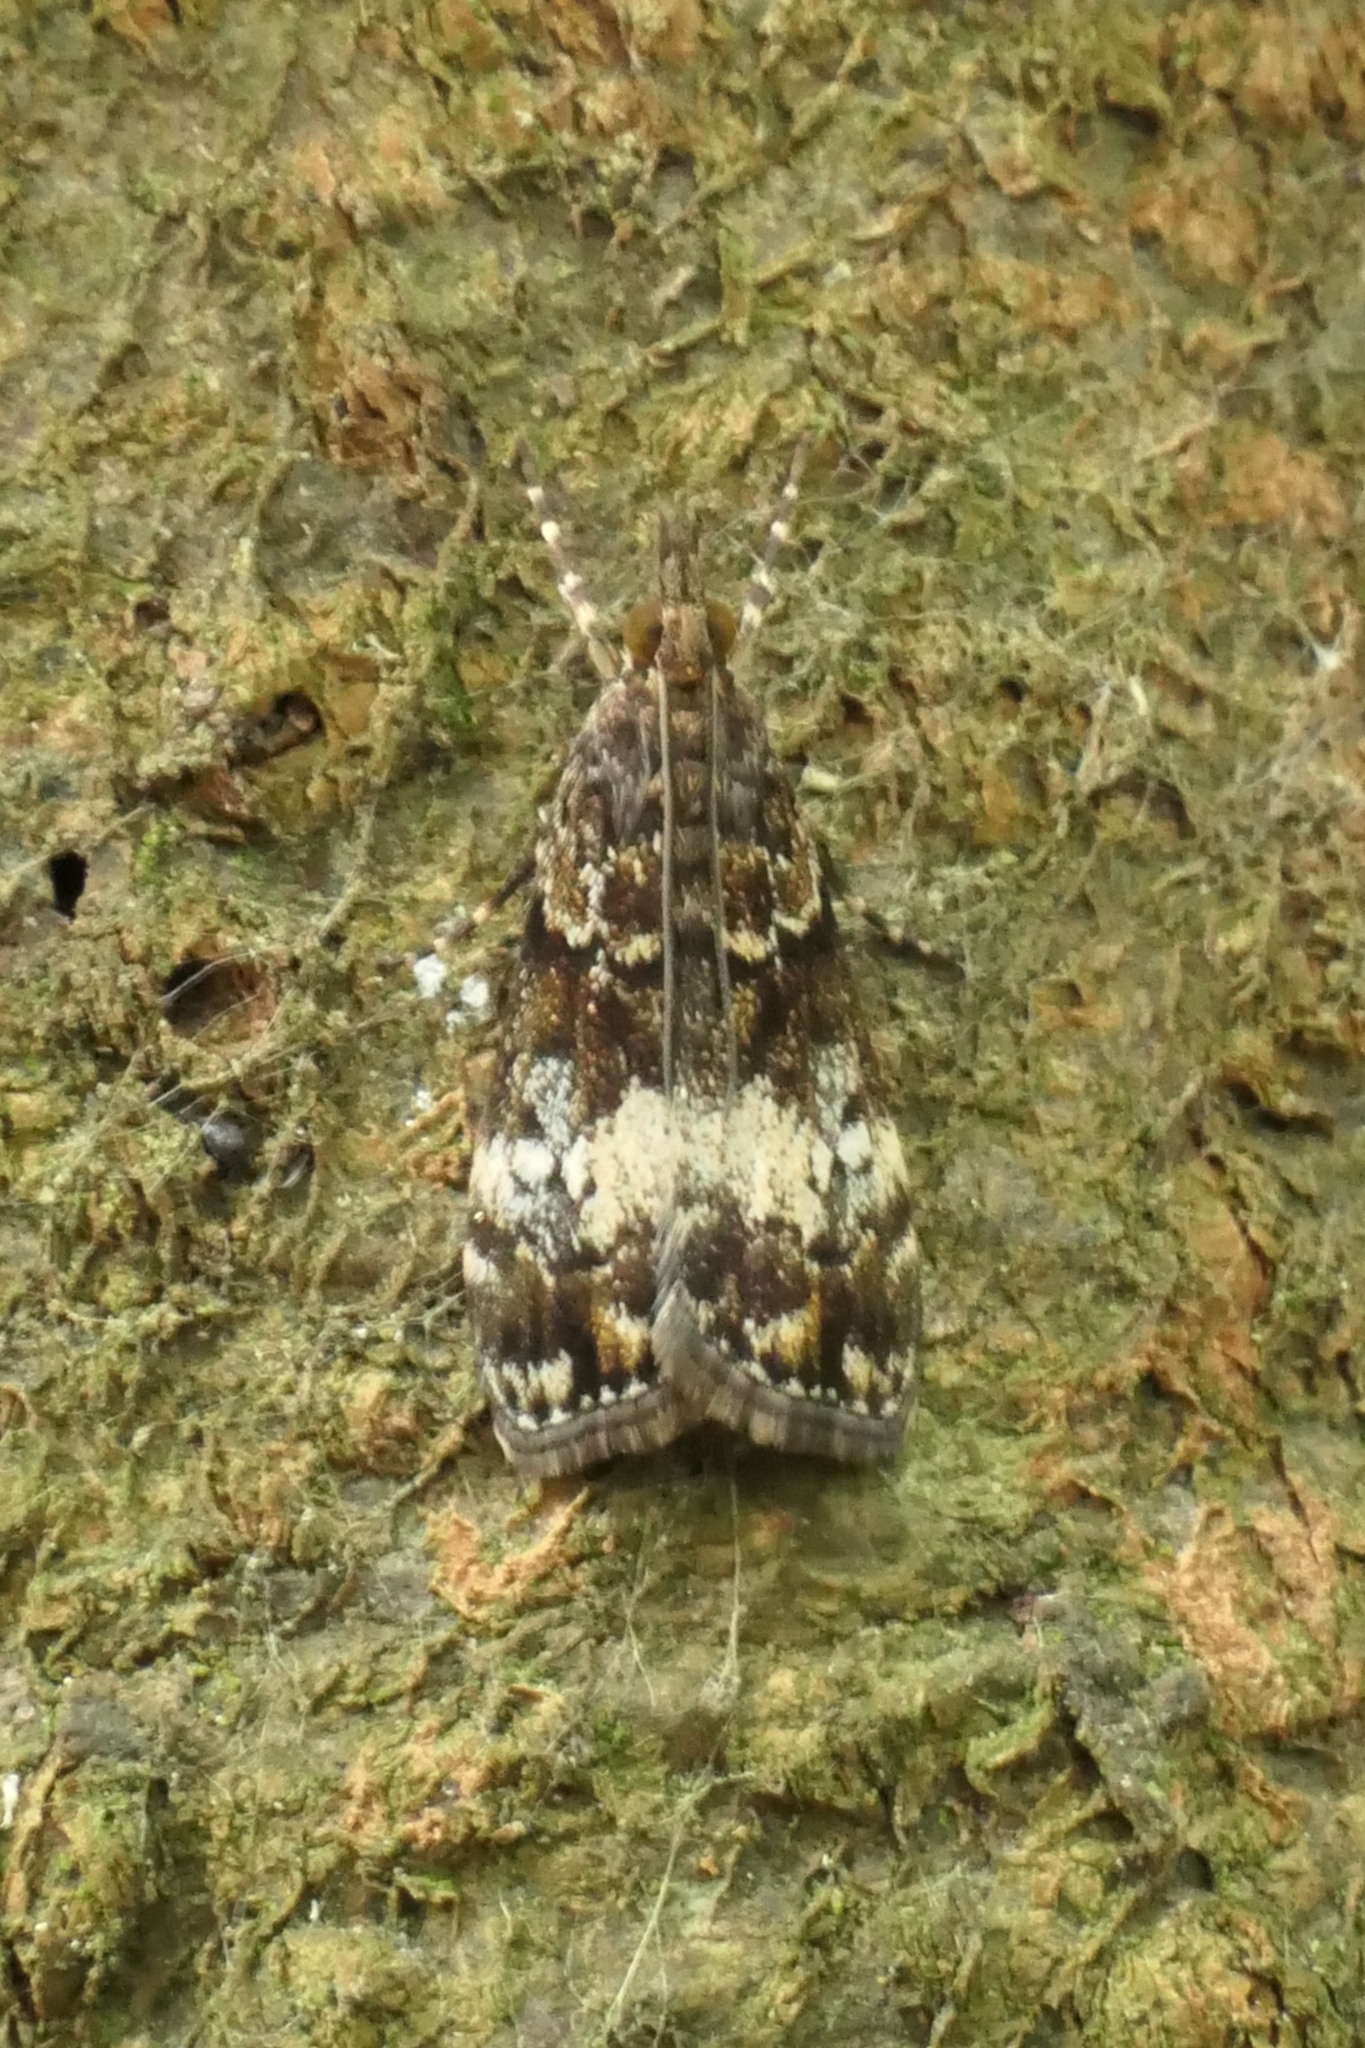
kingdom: Animalia
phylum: Arthropoda
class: Insecta
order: Lepidoptera
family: Crambidae
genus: Eudonia
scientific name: Eudonia dinodes
